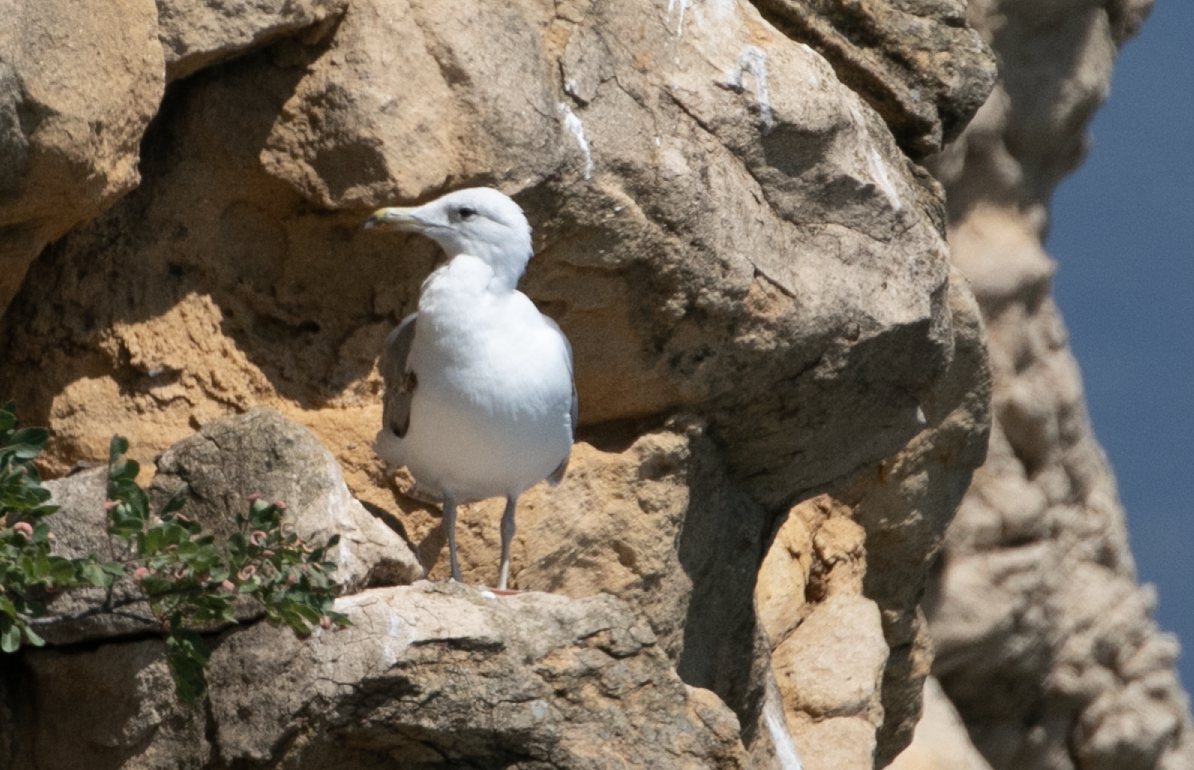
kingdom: Animalia
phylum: Chordata
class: Aves
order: Charadriiformes
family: Laridae
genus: Larus
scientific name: Larus michahellis
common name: Yellow-legged gull
